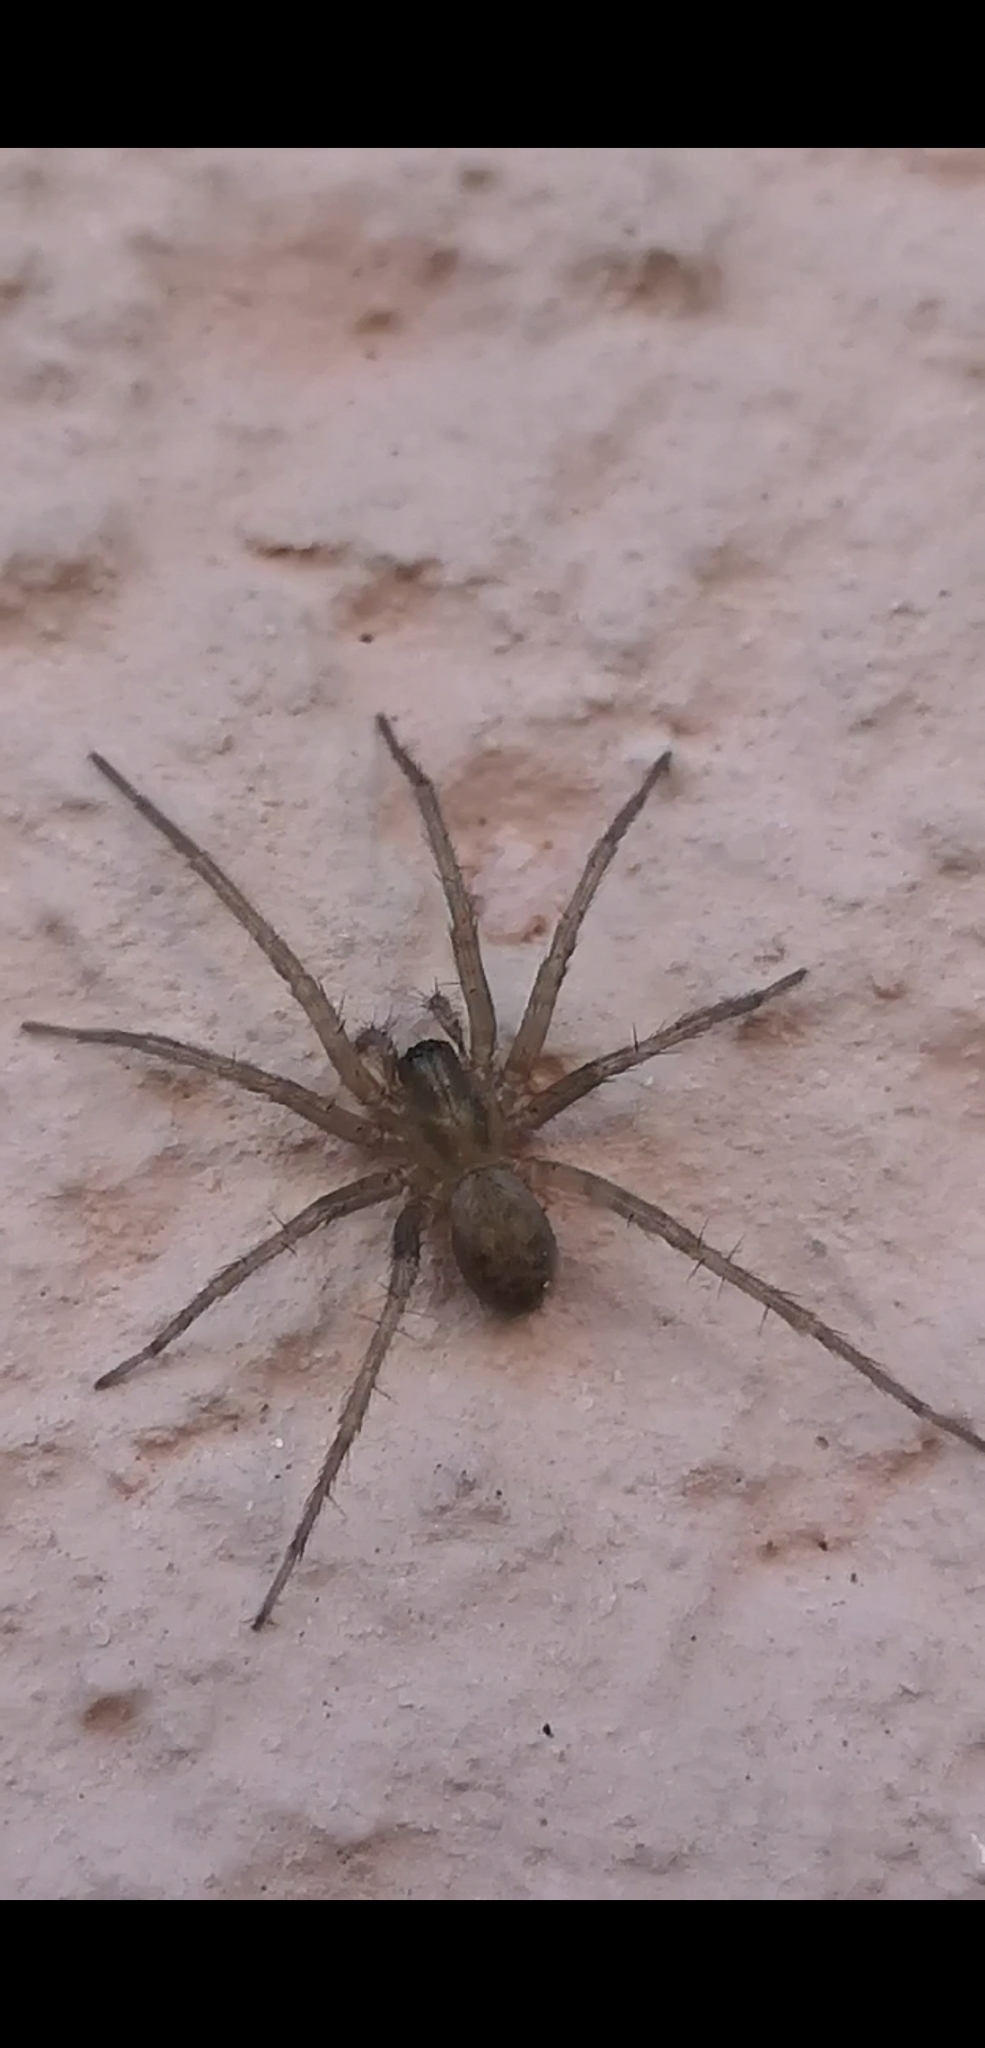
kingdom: Animalia
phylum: Arthropoda
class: Arachnida
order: Araneae
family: Agelenidae
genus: Tegenaria
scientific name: Tegenaria domestica
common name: Barn funnel weaver
